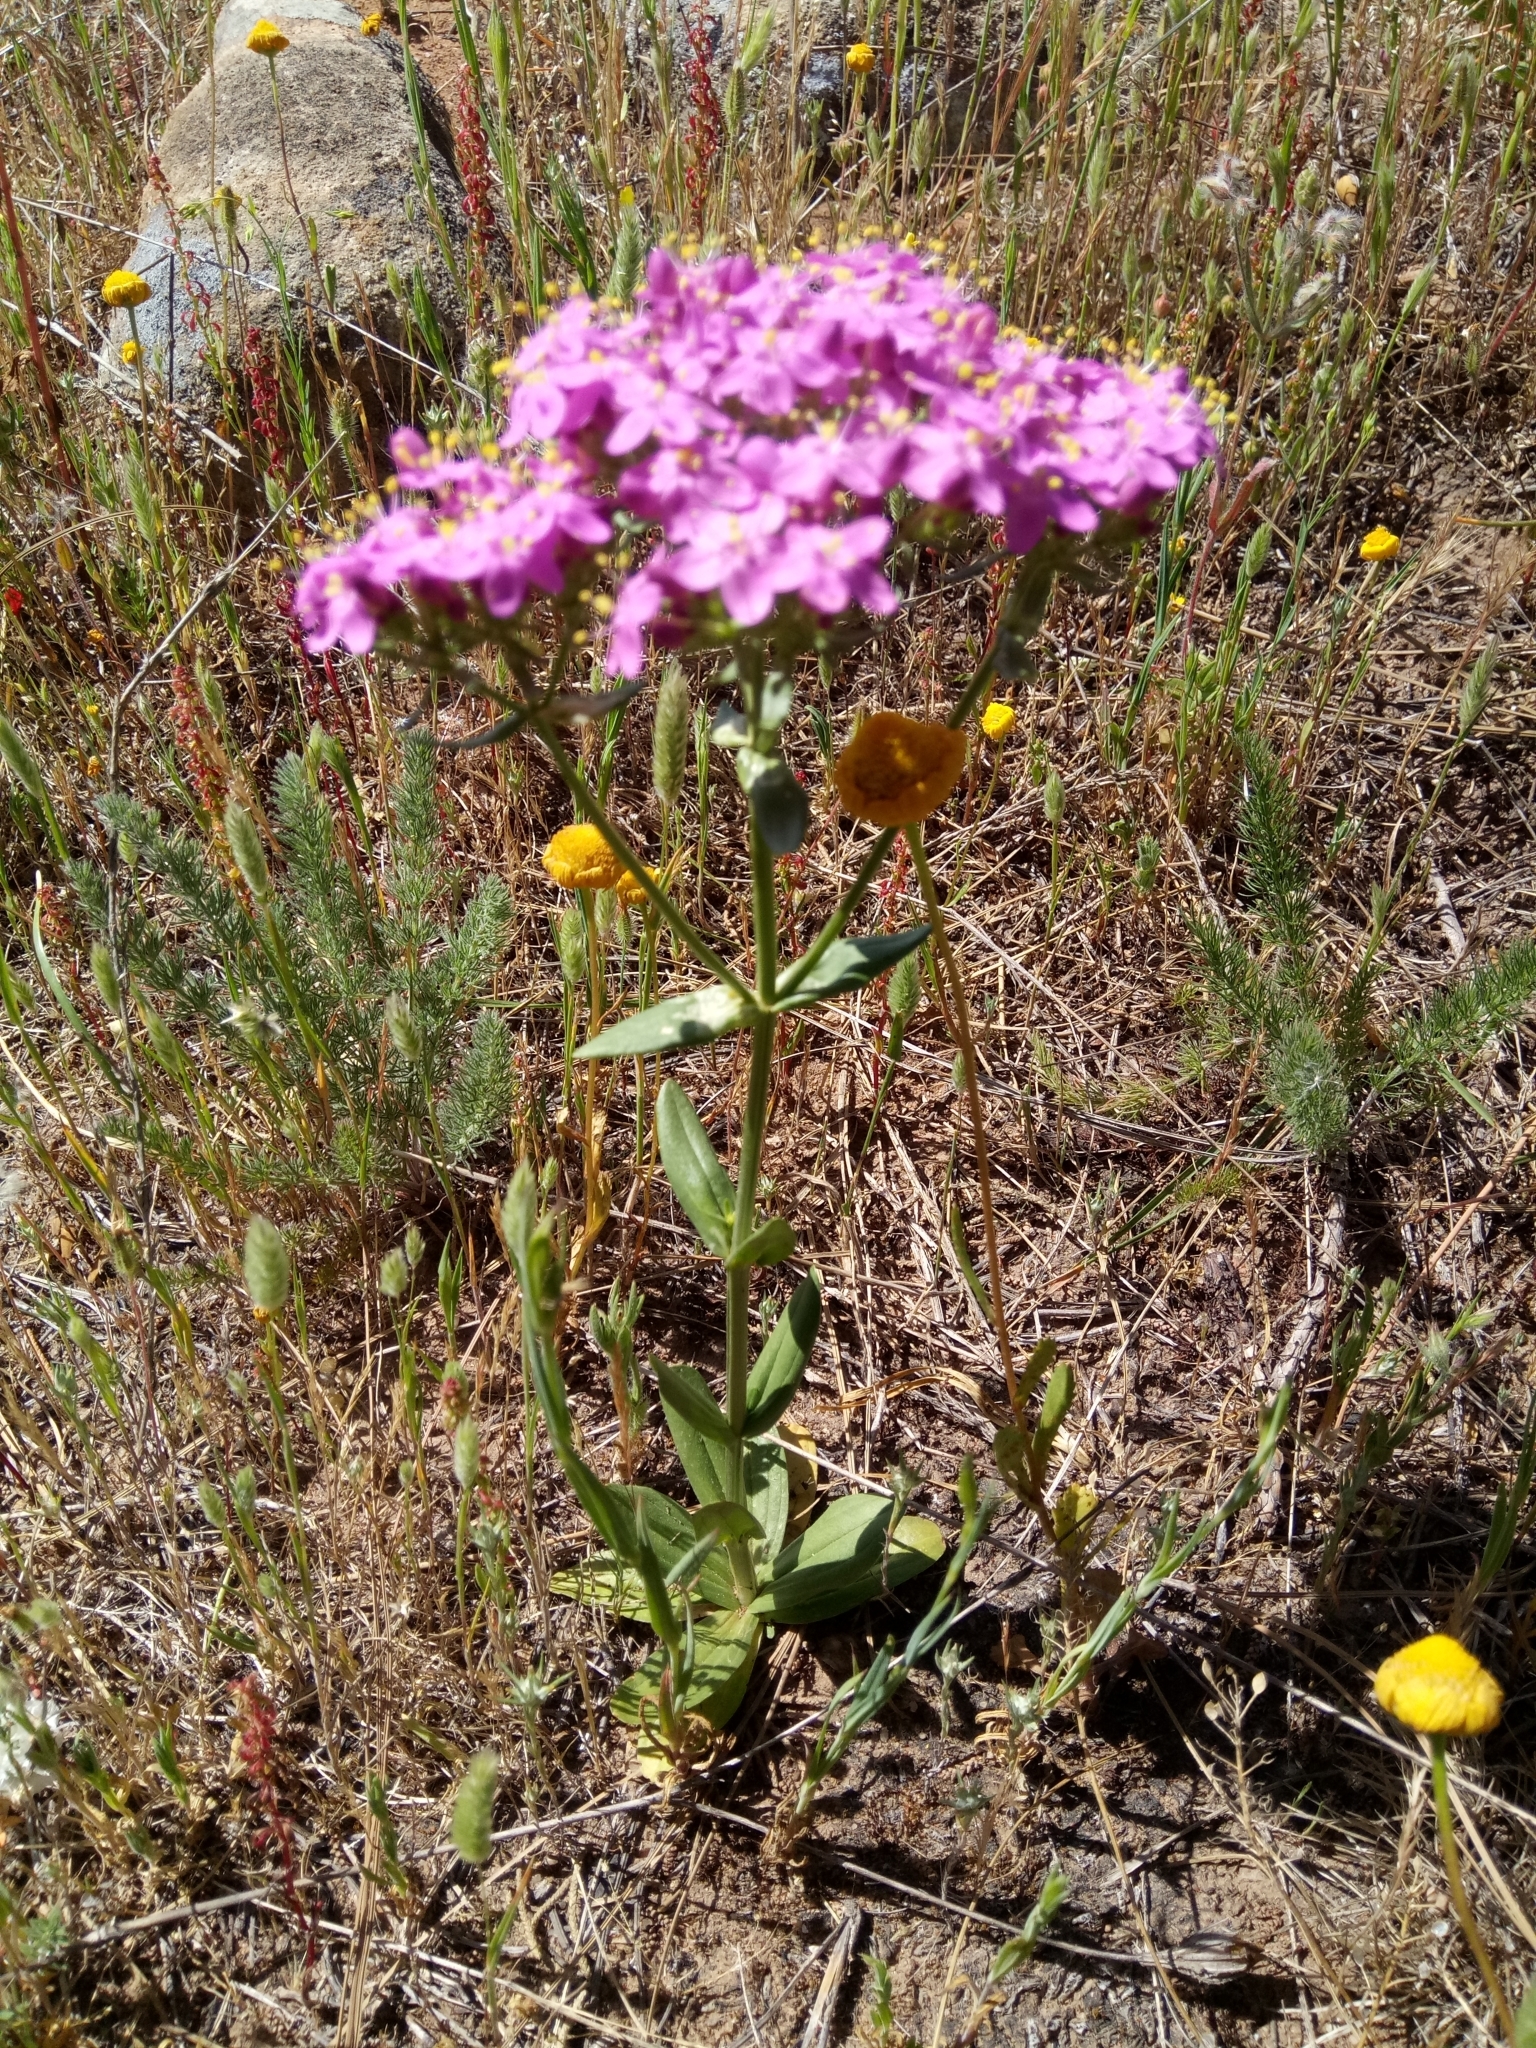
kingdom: Plantae
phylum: Tracheophyta
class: Magnoliopsida
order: Gentianales
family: Gentianaceae
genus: Centaurium
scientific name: Centaurium erythraea
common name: Common centaury
